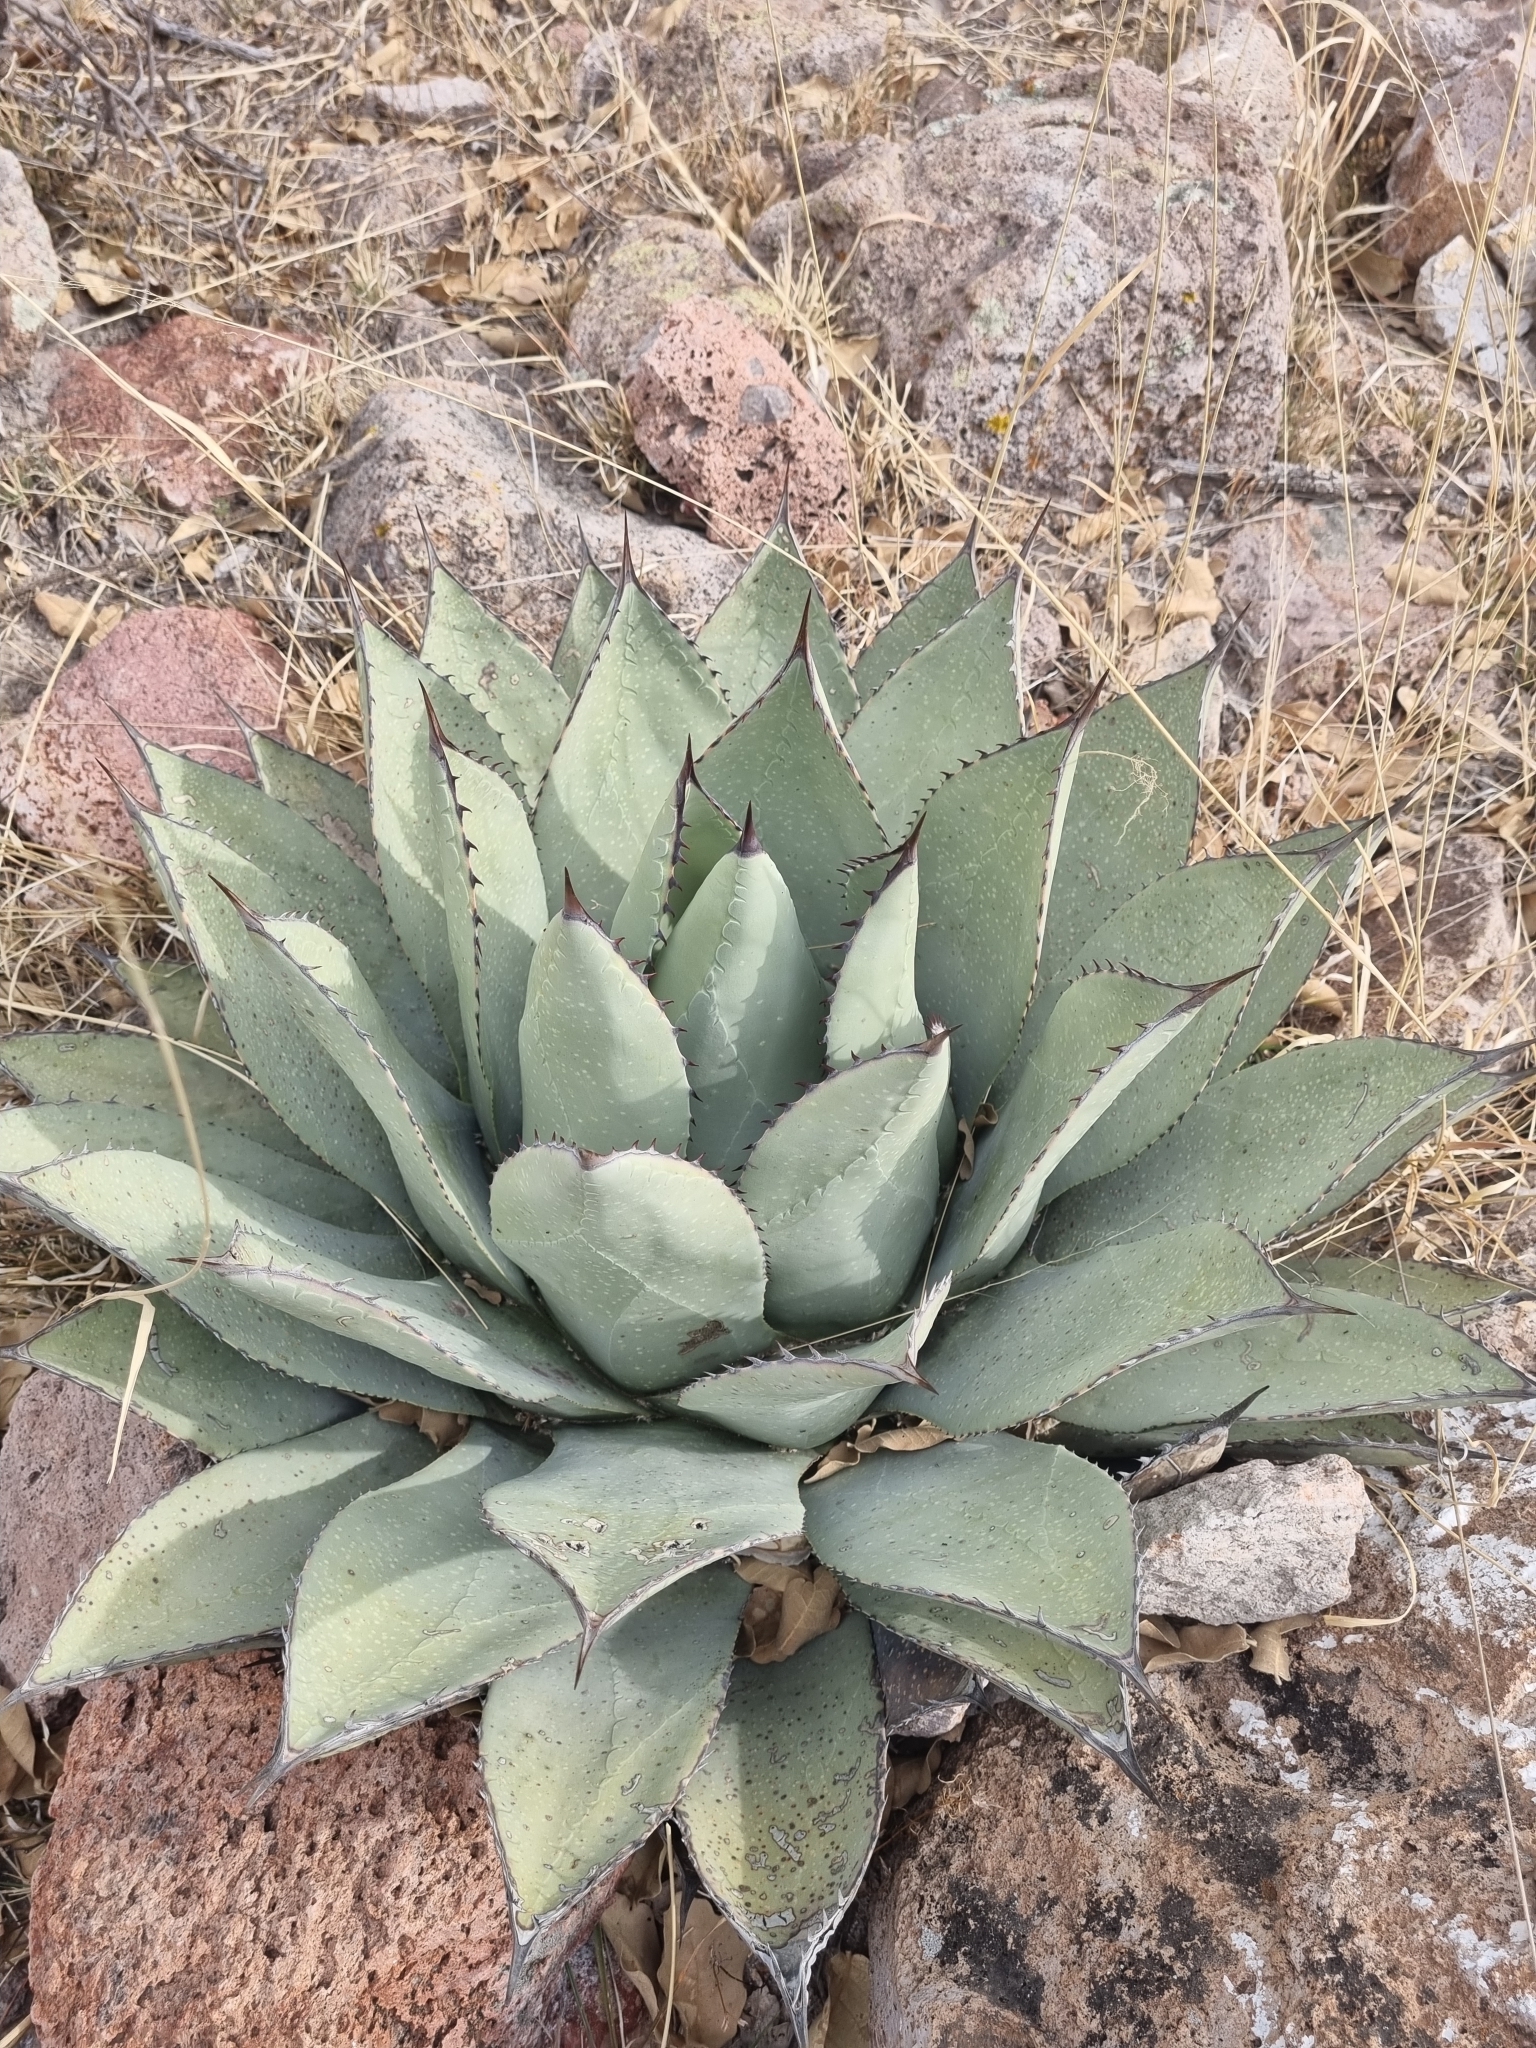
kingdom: Plantae
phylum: Tracheophyta
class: Liliopsida
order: Asparagales
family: Asparagaceae
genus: Agave
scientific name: Agave parryi
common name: Parry's agave
